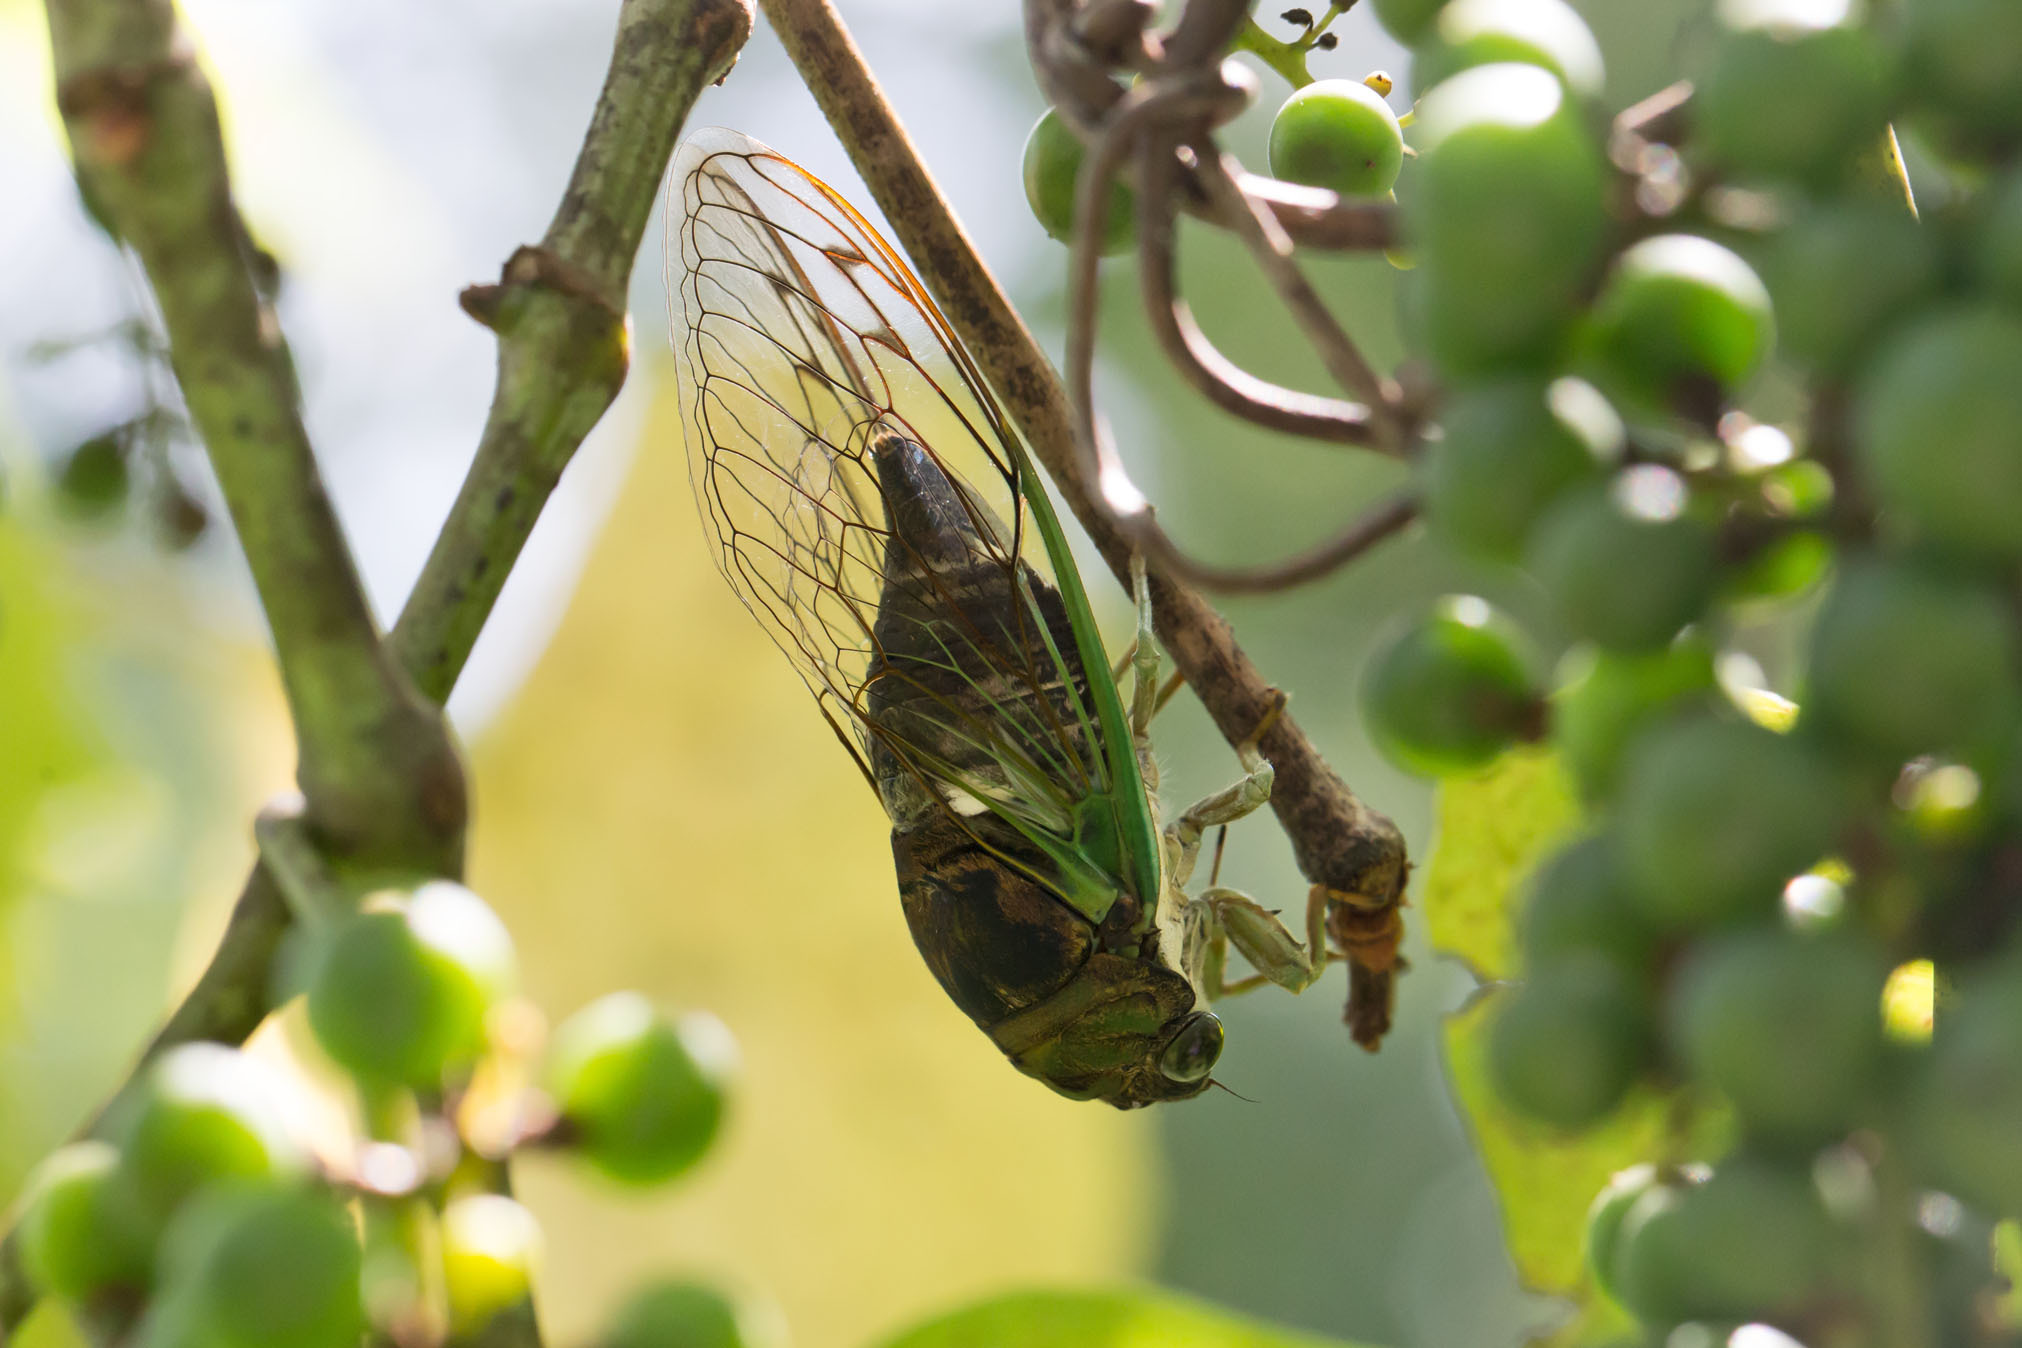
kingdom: Animalia
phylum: Arthropoda
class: Insecta
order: Hemiptera
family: Cicadidae
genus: Neotibicen
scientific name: Neotibicen tibicen
